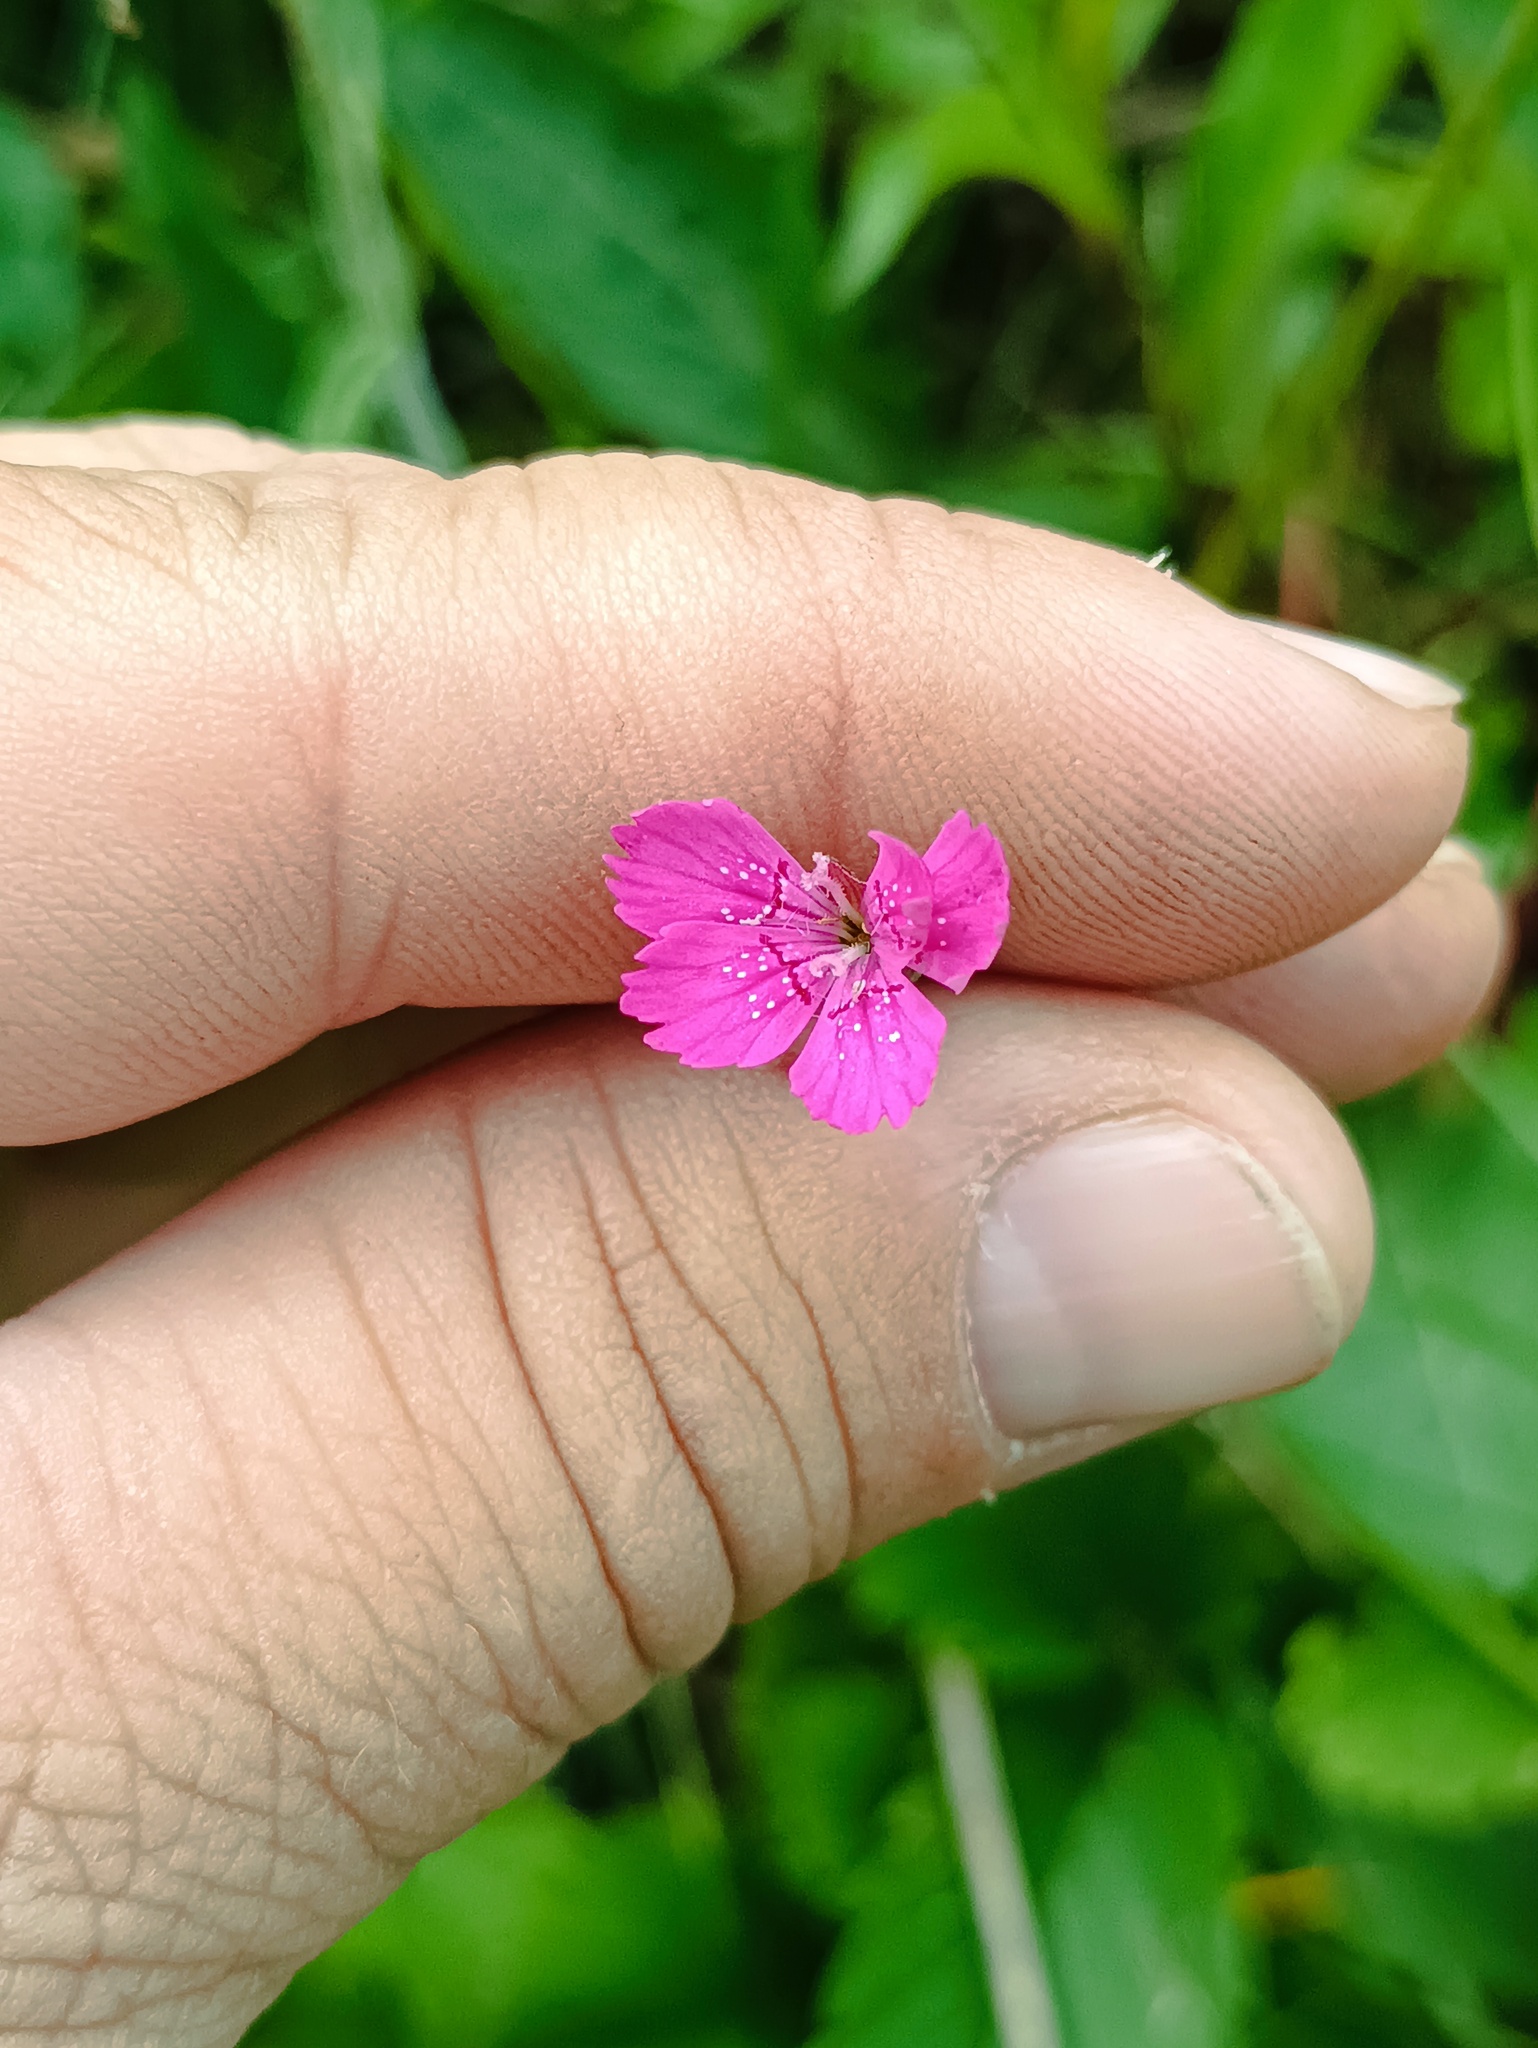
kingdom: Plantae
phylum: Tracheophyta
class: Magnoliopsida
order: Caryophyllales
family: Caryophyllaceae
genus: Dianthus
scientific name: Dianthus deltoides
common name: Maiden pink
